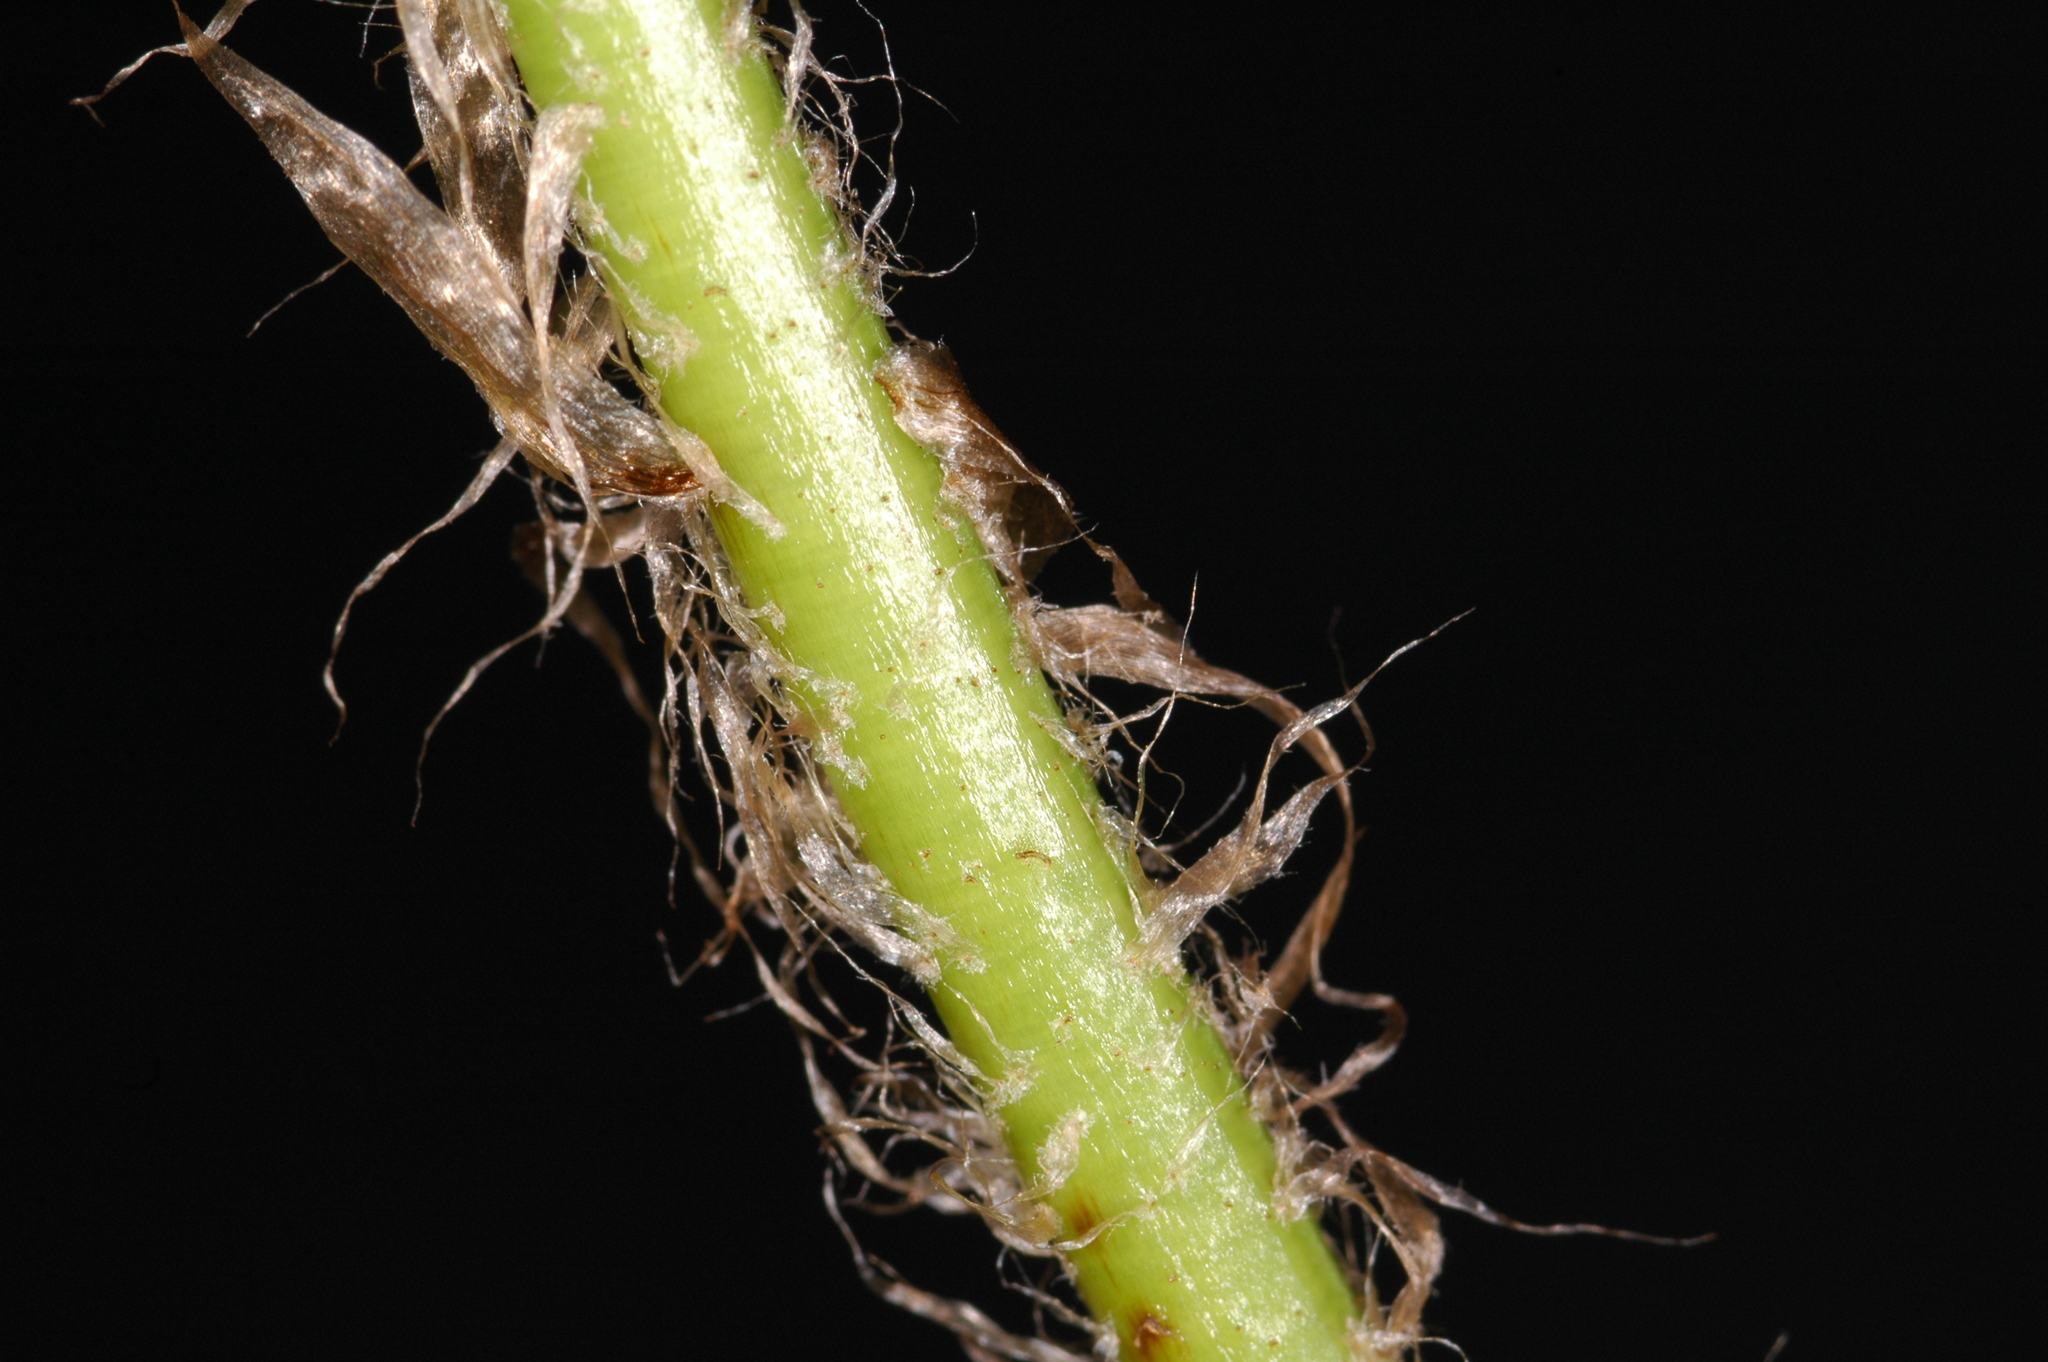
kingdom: Plantae
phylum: Tracheophyta
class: Polypodiopsida
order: Polypodiales
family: Dryopteridaceae
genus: Polystichum
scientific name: Polystichum andersonii
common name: Anderson's holly fern
